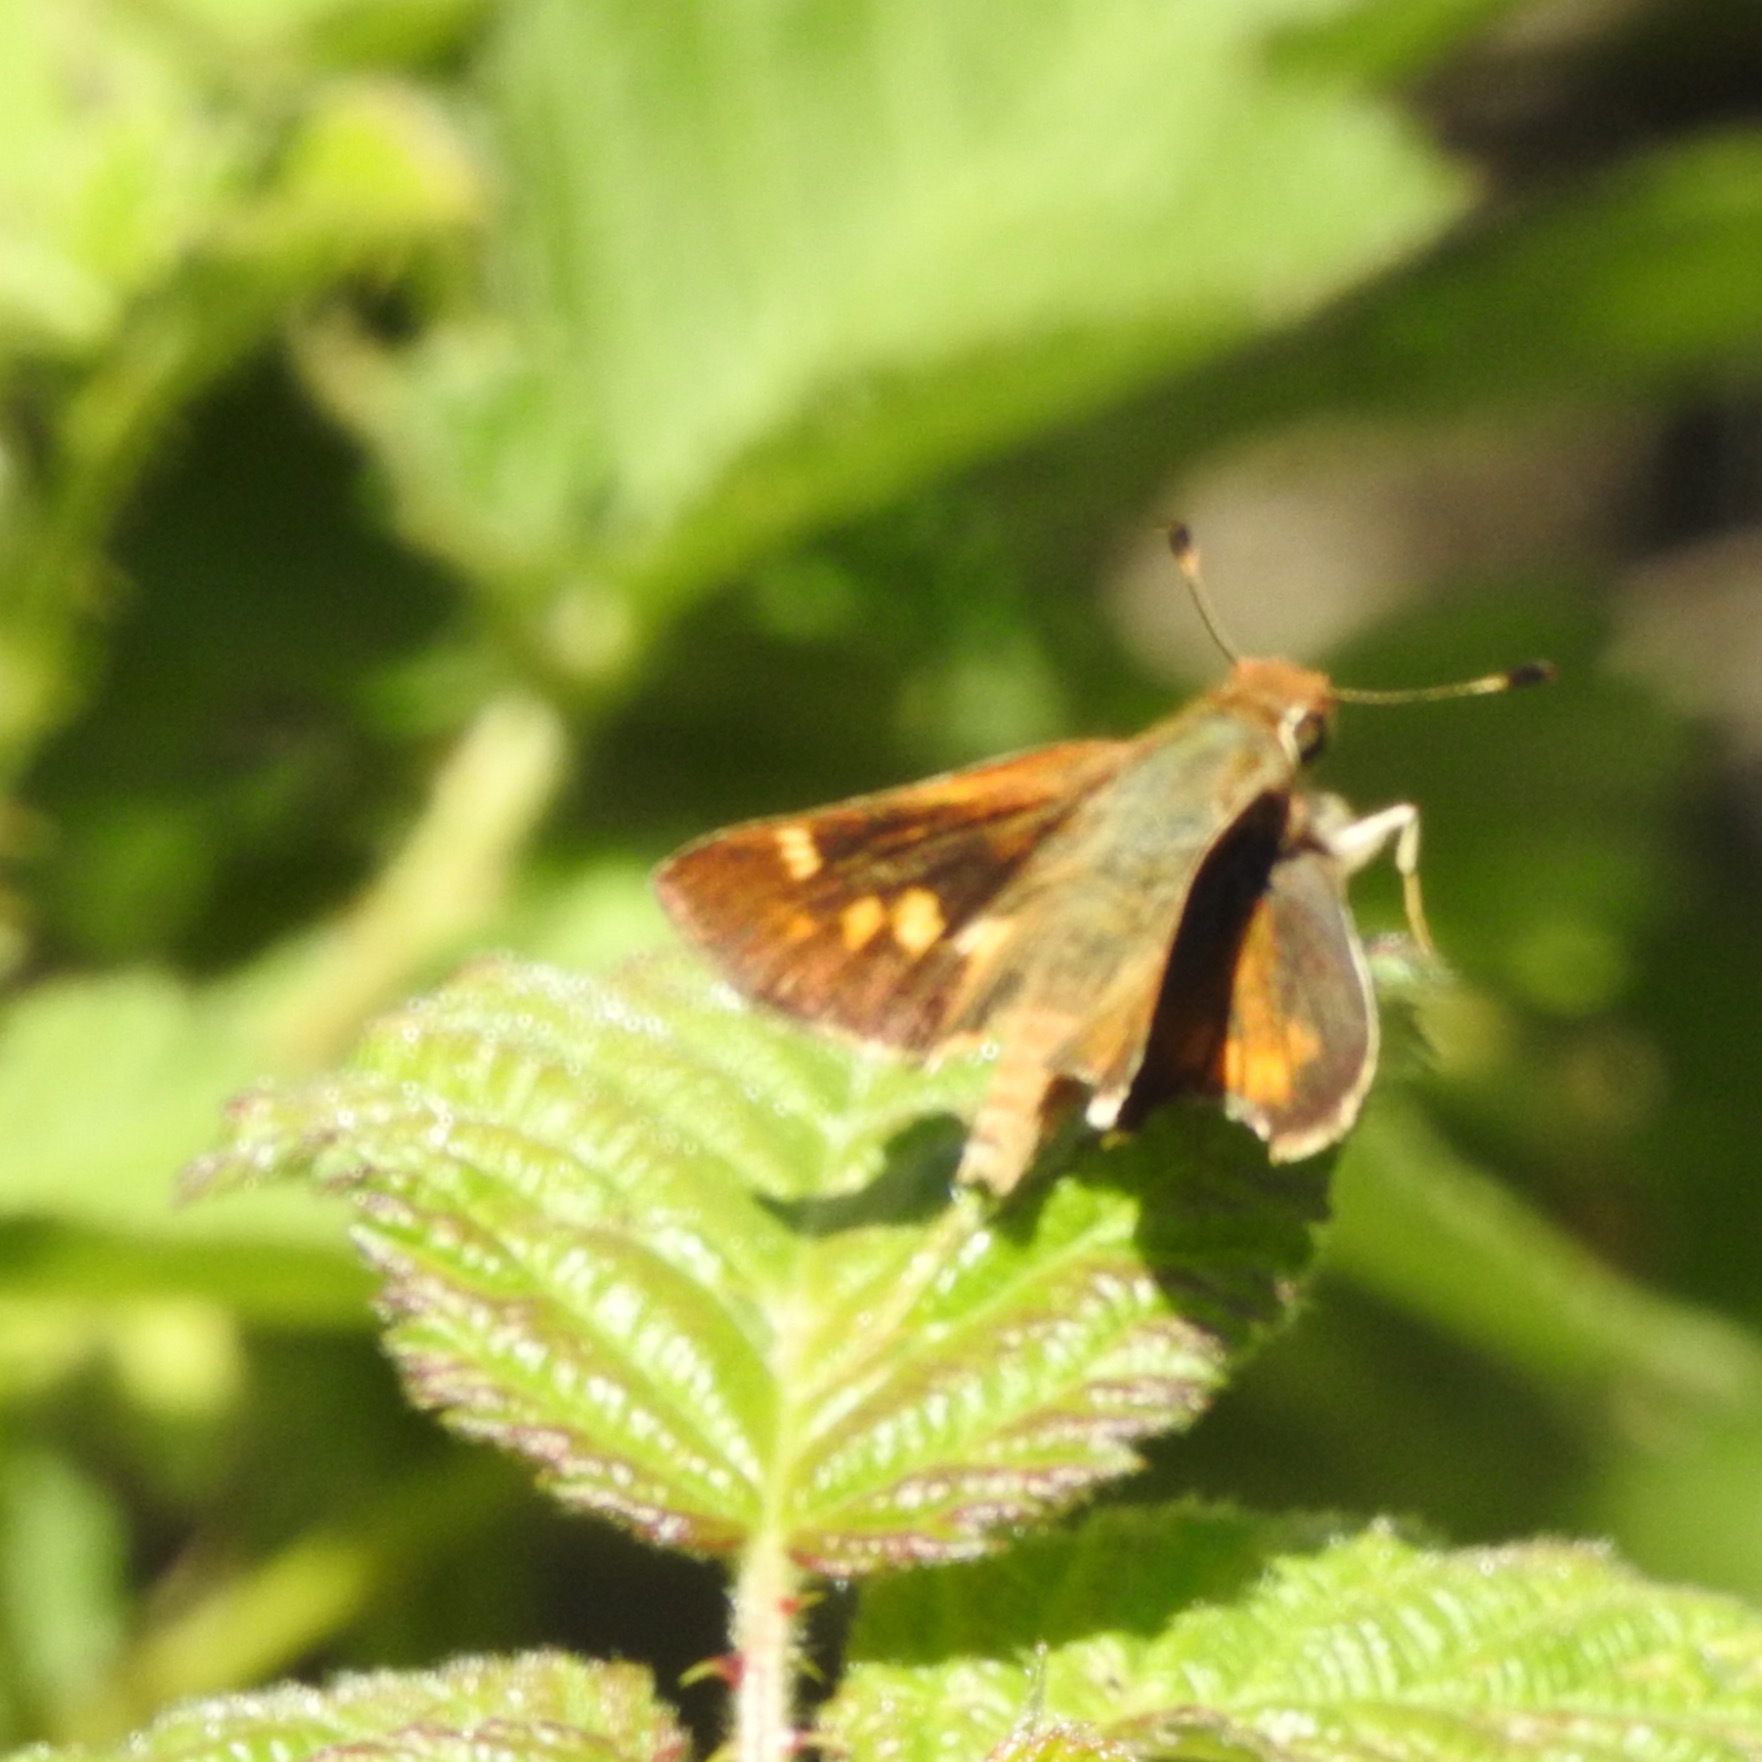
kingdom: Animalia
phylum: Arthropoda
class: Insecta
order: Lepidoptera
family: Hesperiidae
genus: Lon
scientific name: Lon melane
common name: Umber skipper
